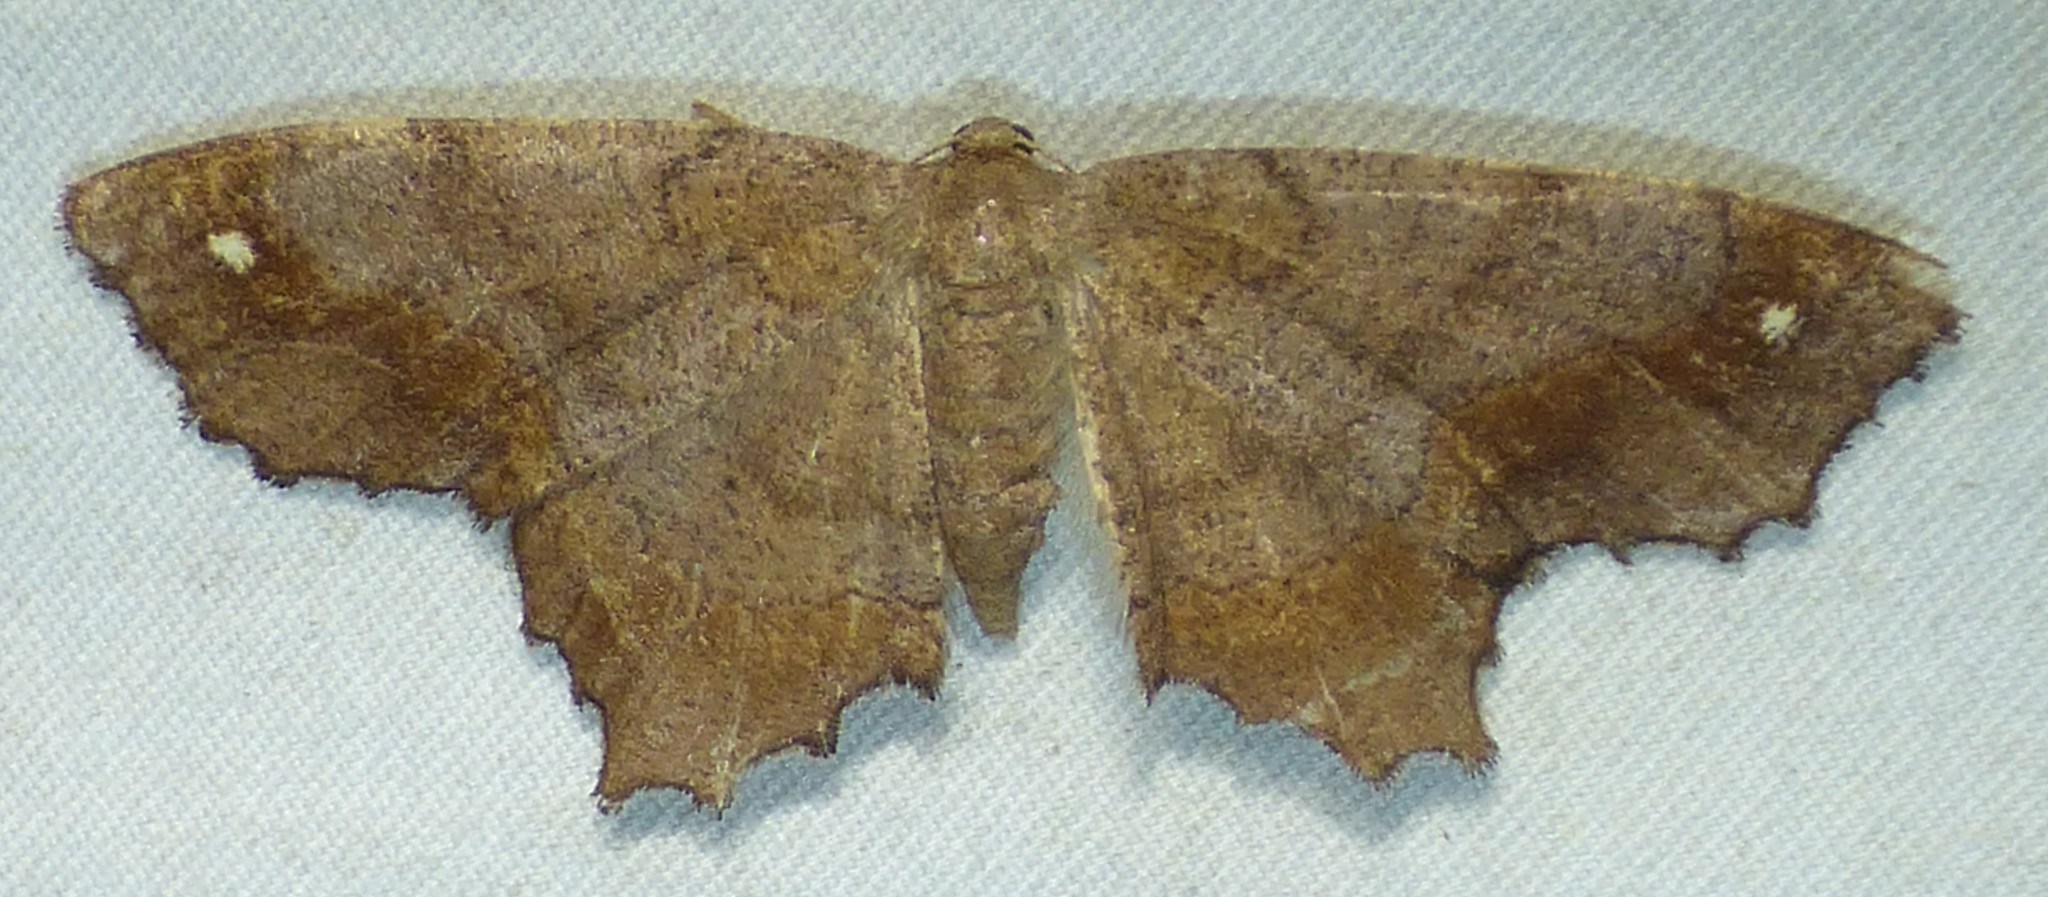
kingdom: Animalia
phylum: Arthropoda
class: Insecta
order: Lepidoptera
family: Geometridae
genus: Hypagyrtis
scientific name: Hypagyrtis esther
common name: Esther moth
